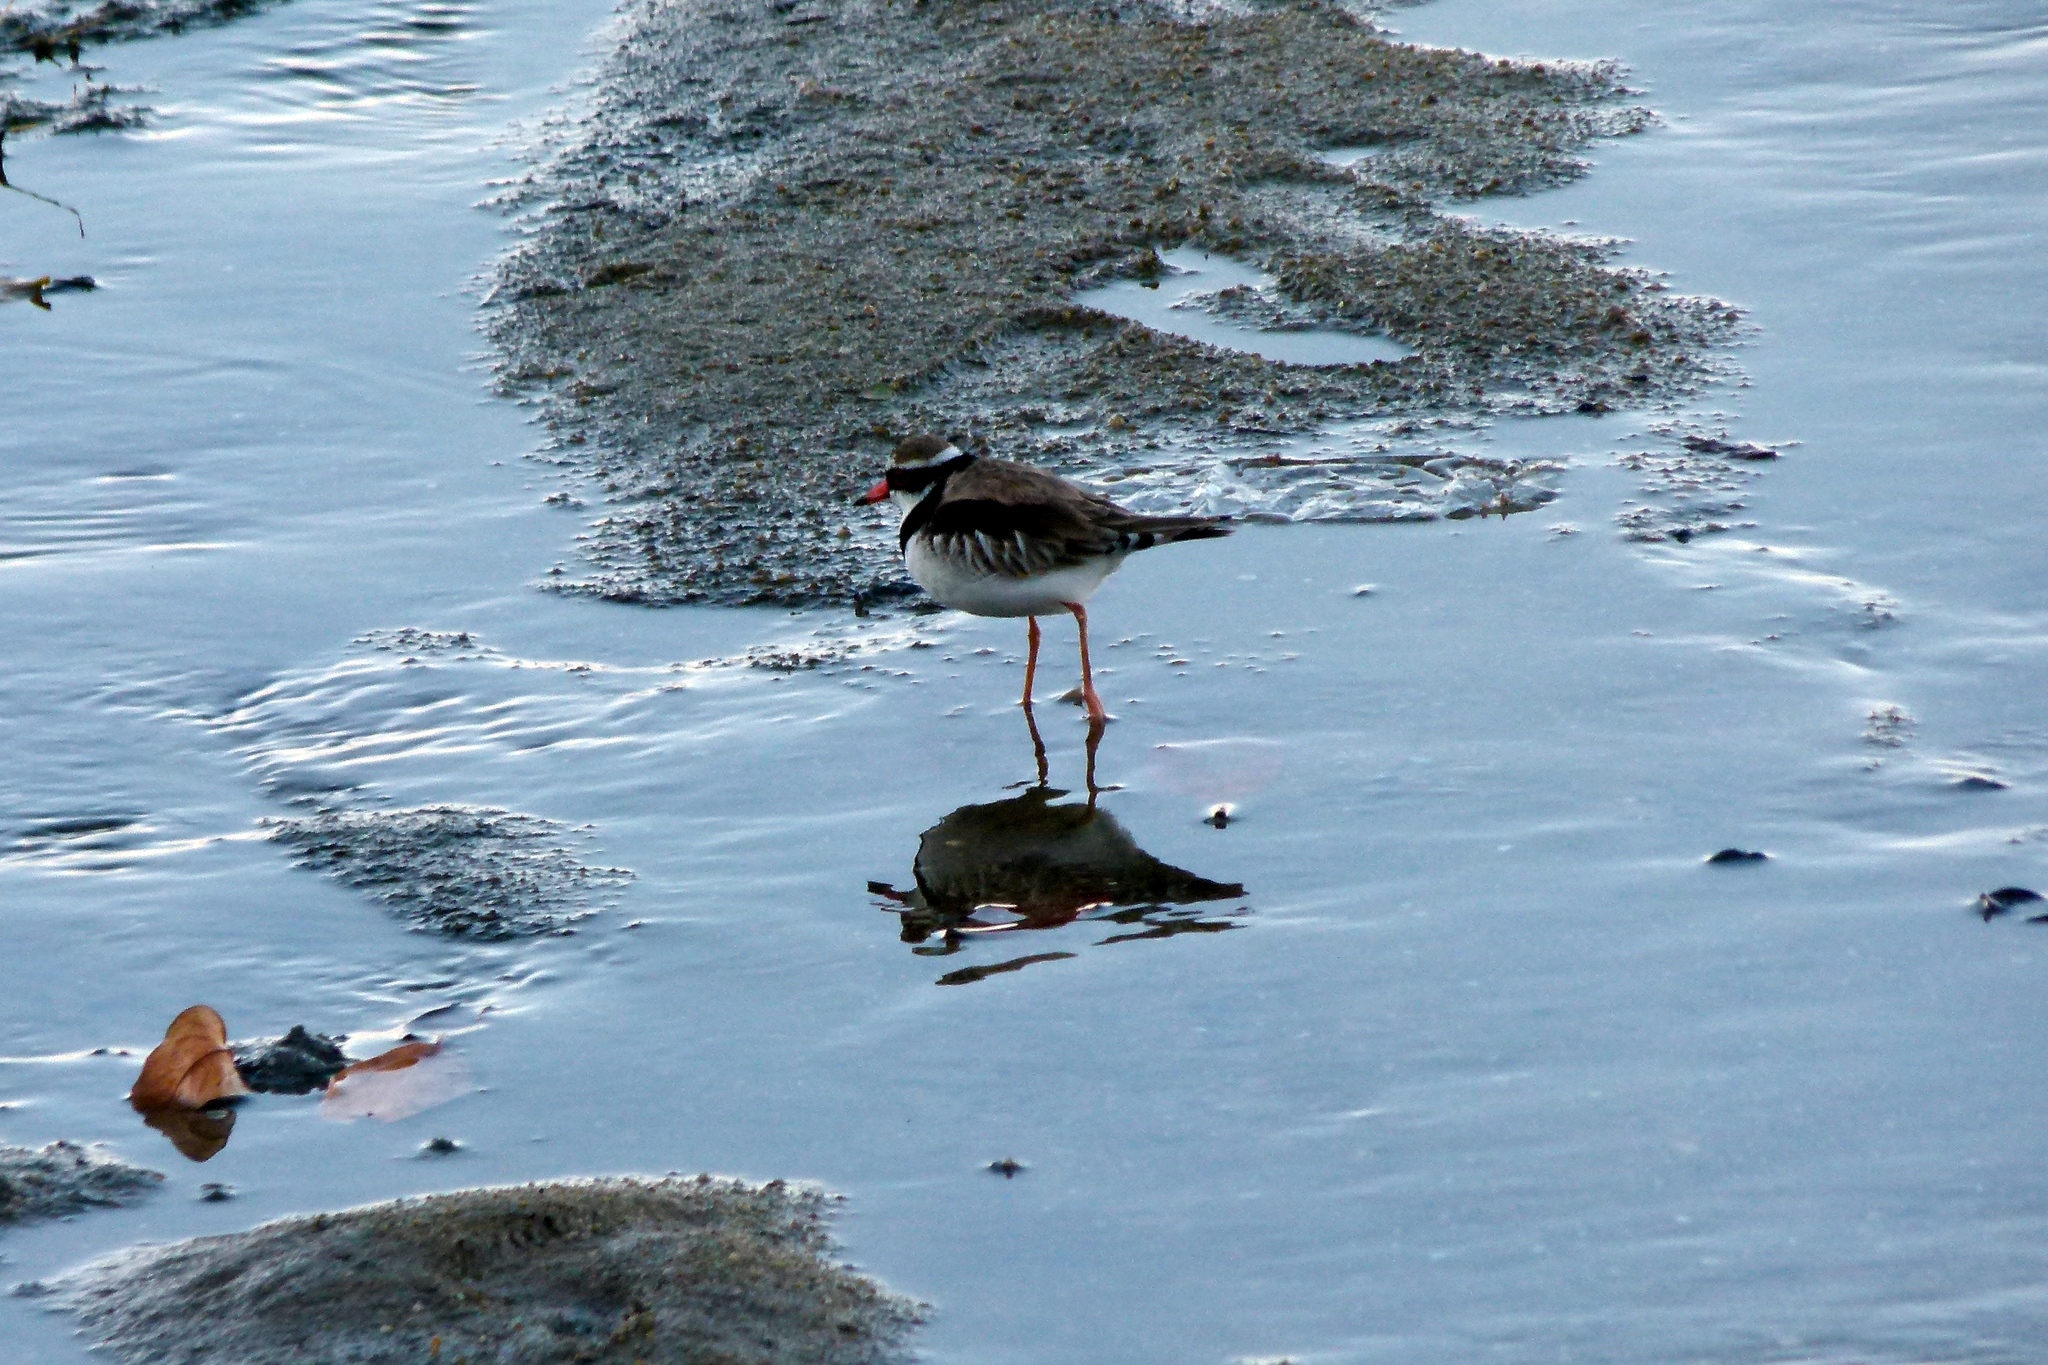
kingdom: Animalia
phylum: Chordata
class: Aves
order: Charadriiformes
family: Charadriidae
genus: Elseyornis
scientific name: Elseyornis melanops
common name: Black-fronted dotterel
